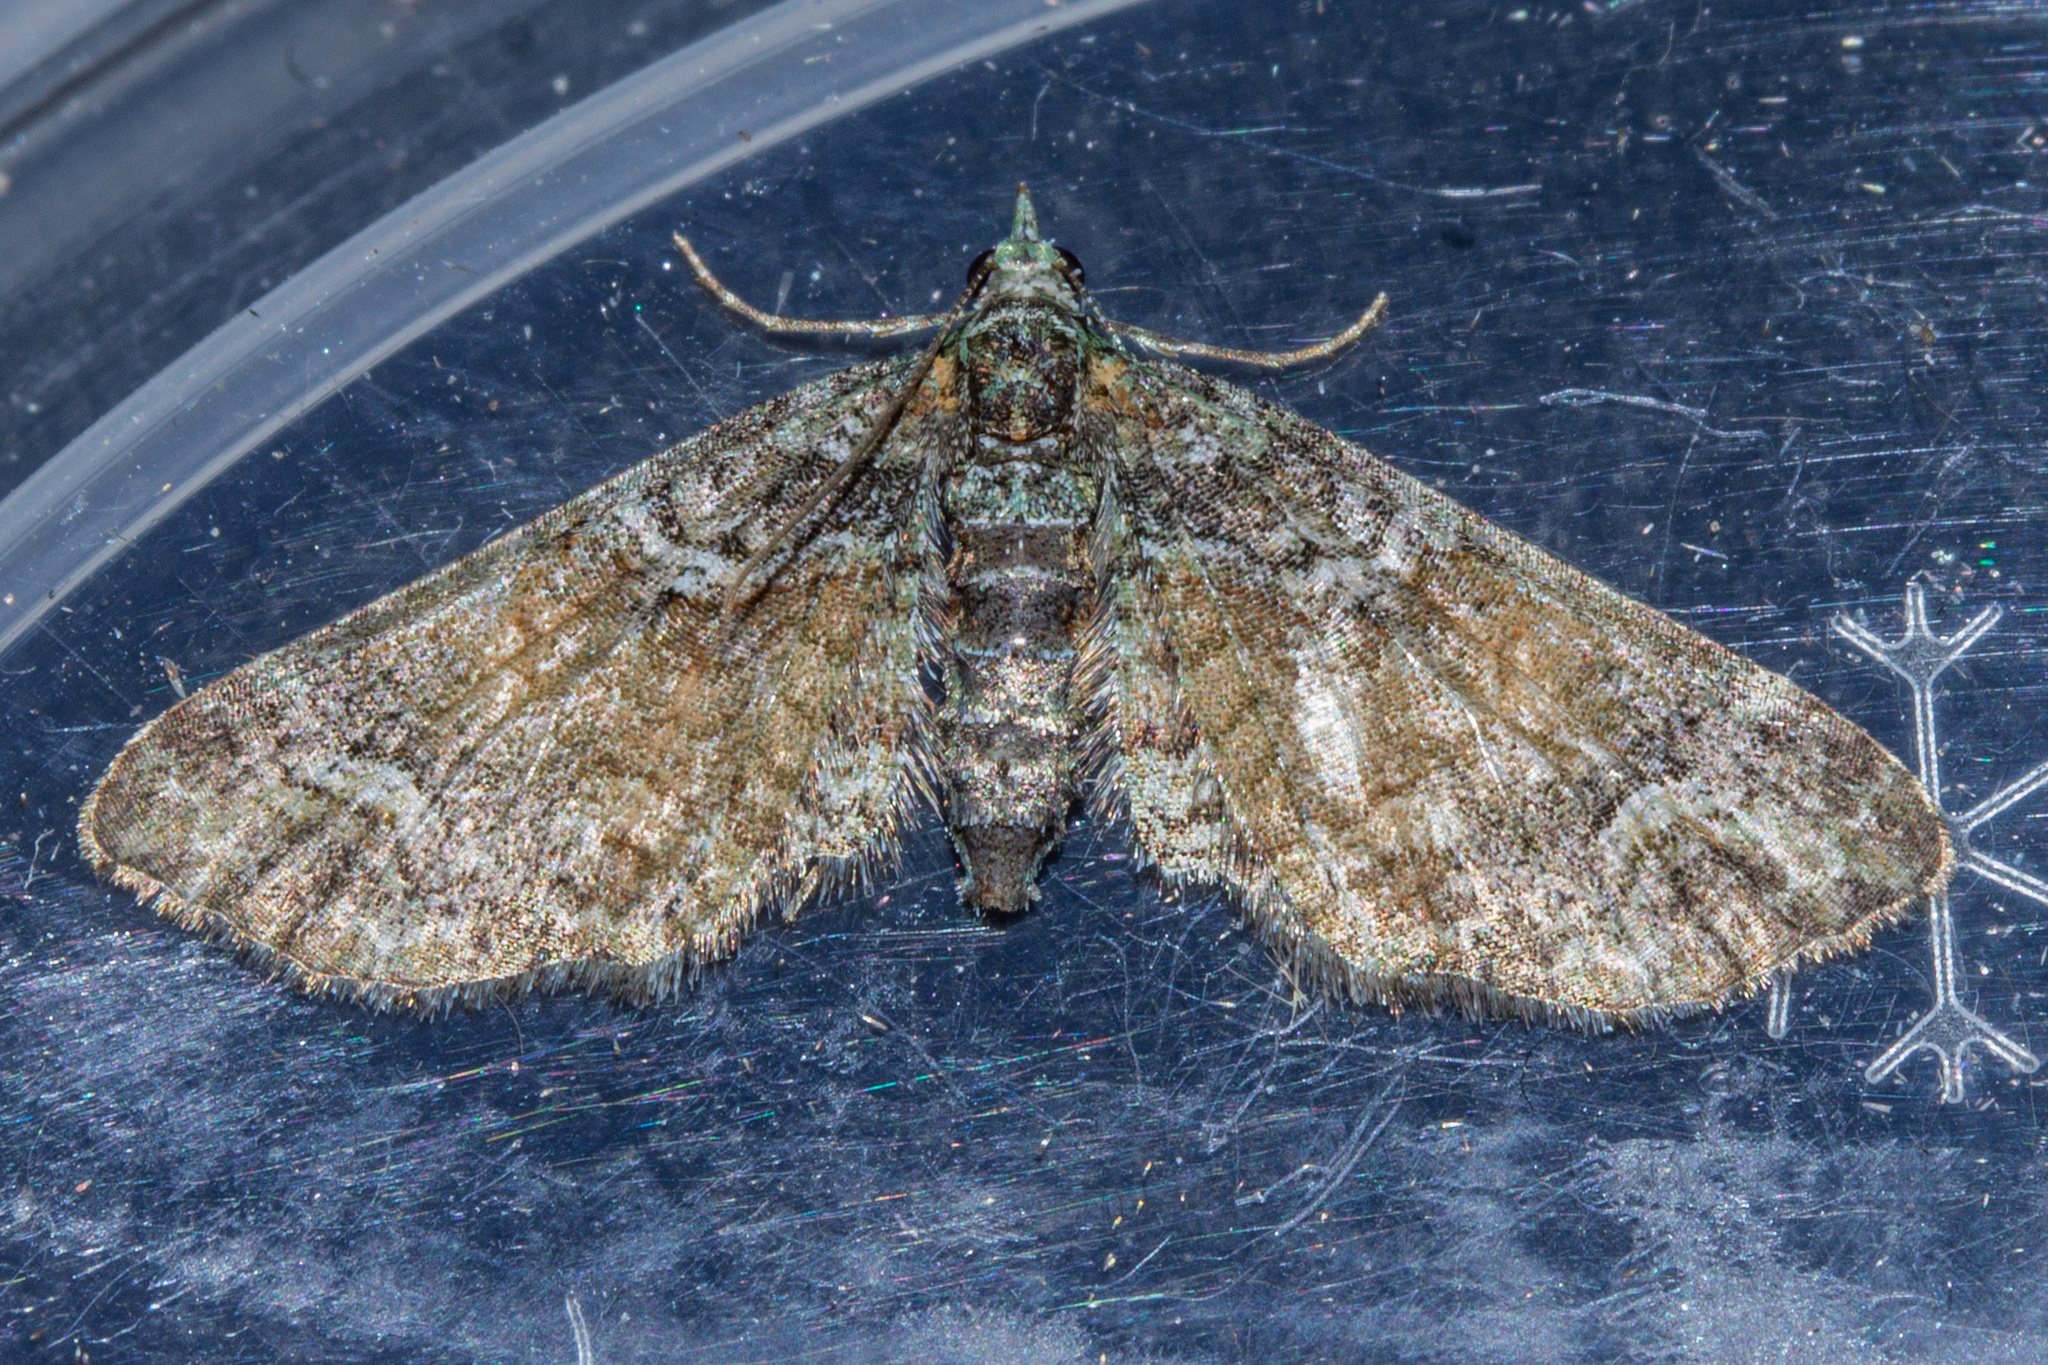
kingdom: Animalia
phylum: Arthropoda
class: Insecta
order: Lepidoptera
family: Geometridae
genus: Idaea
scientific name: Idaea mutanda
